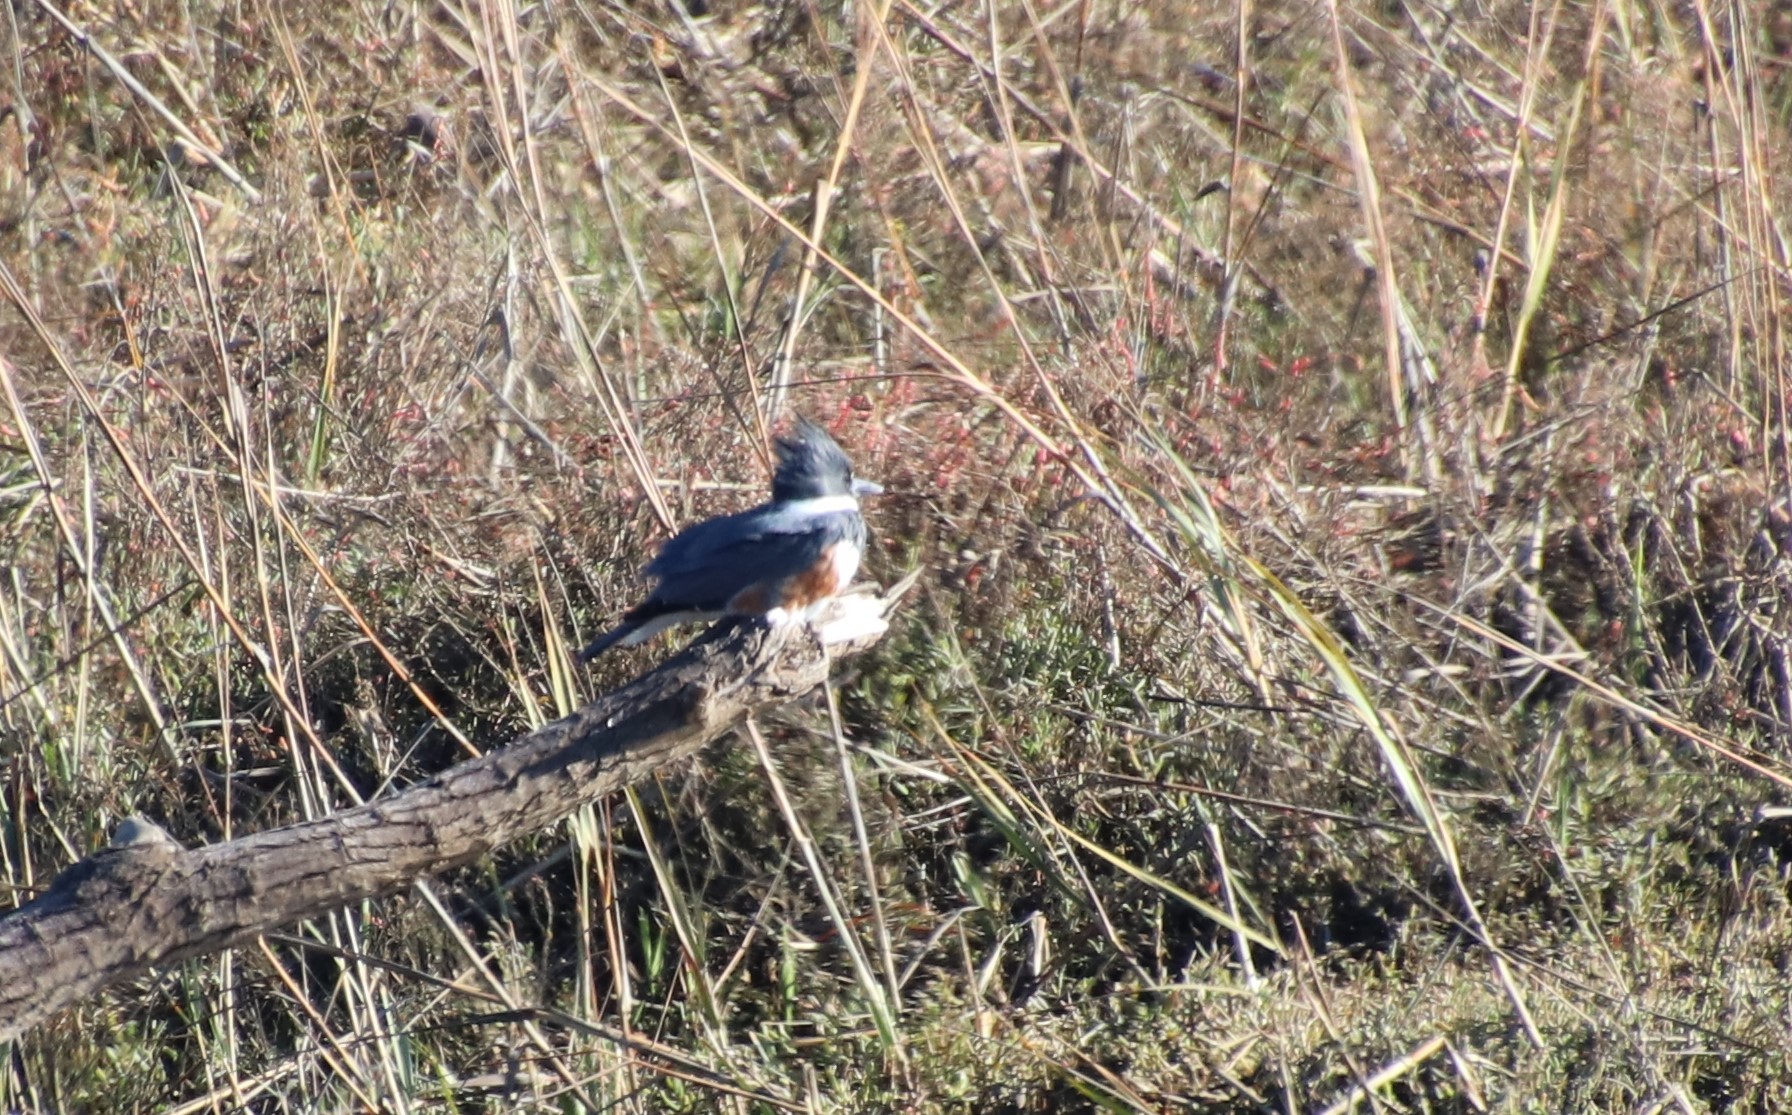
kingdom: Animalia
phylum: Chordata
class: Aves
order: Coraciiformes
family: Alcedinidae
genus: Megaceryle
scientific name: Megaceryle alcyon
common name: Belted kingfisher
